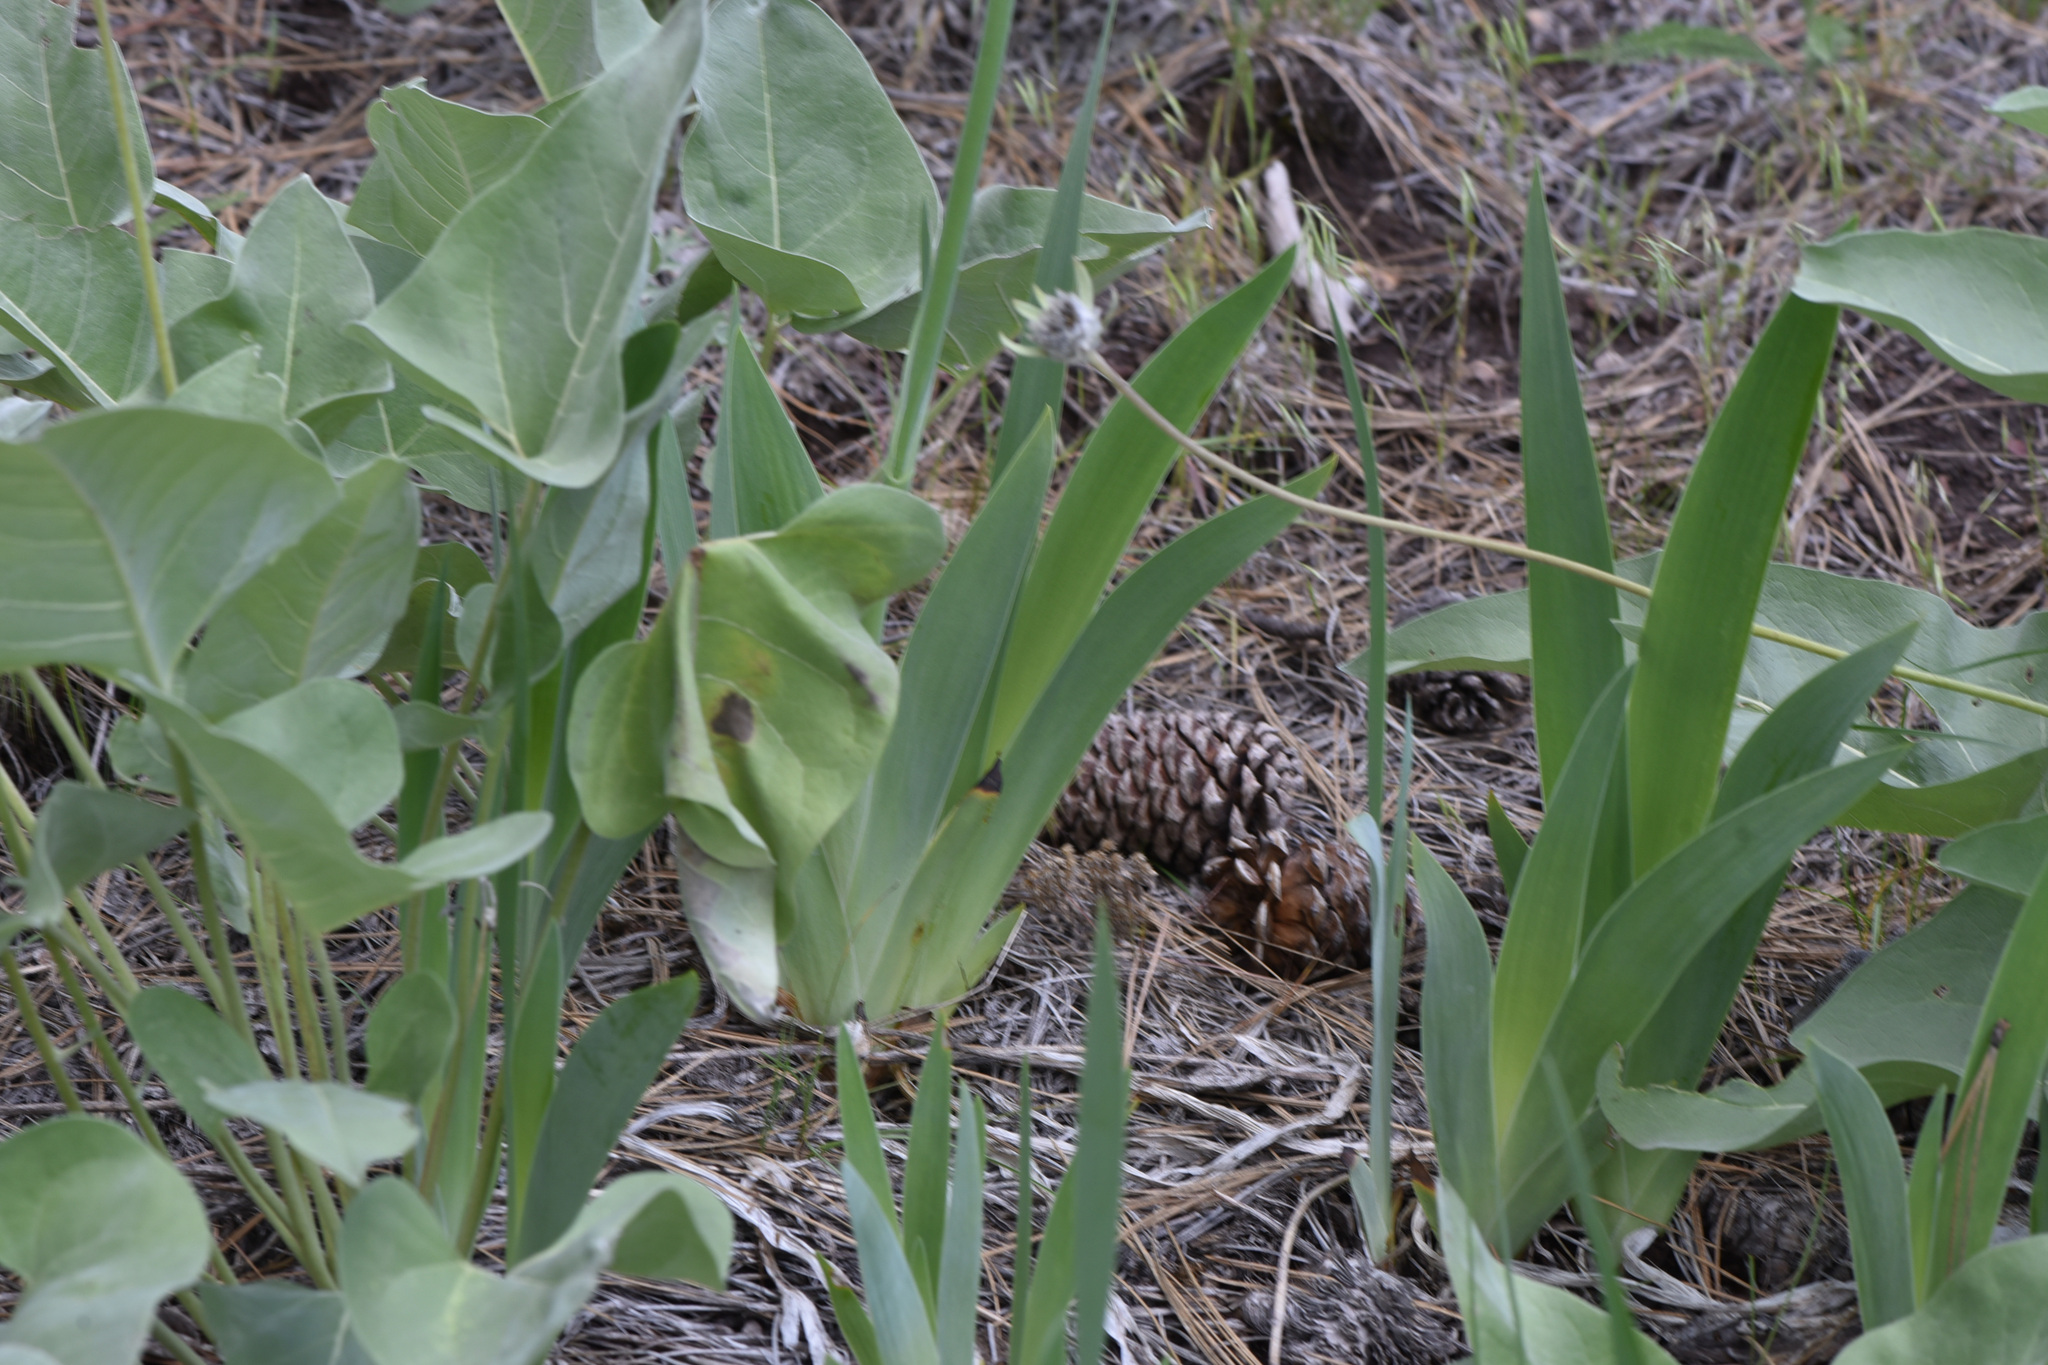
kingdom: Plantae
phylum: Tracheophyta
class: Liliopsida
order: Asparagales
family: Iridaceae
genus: Iris
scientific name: Iris hybrida
